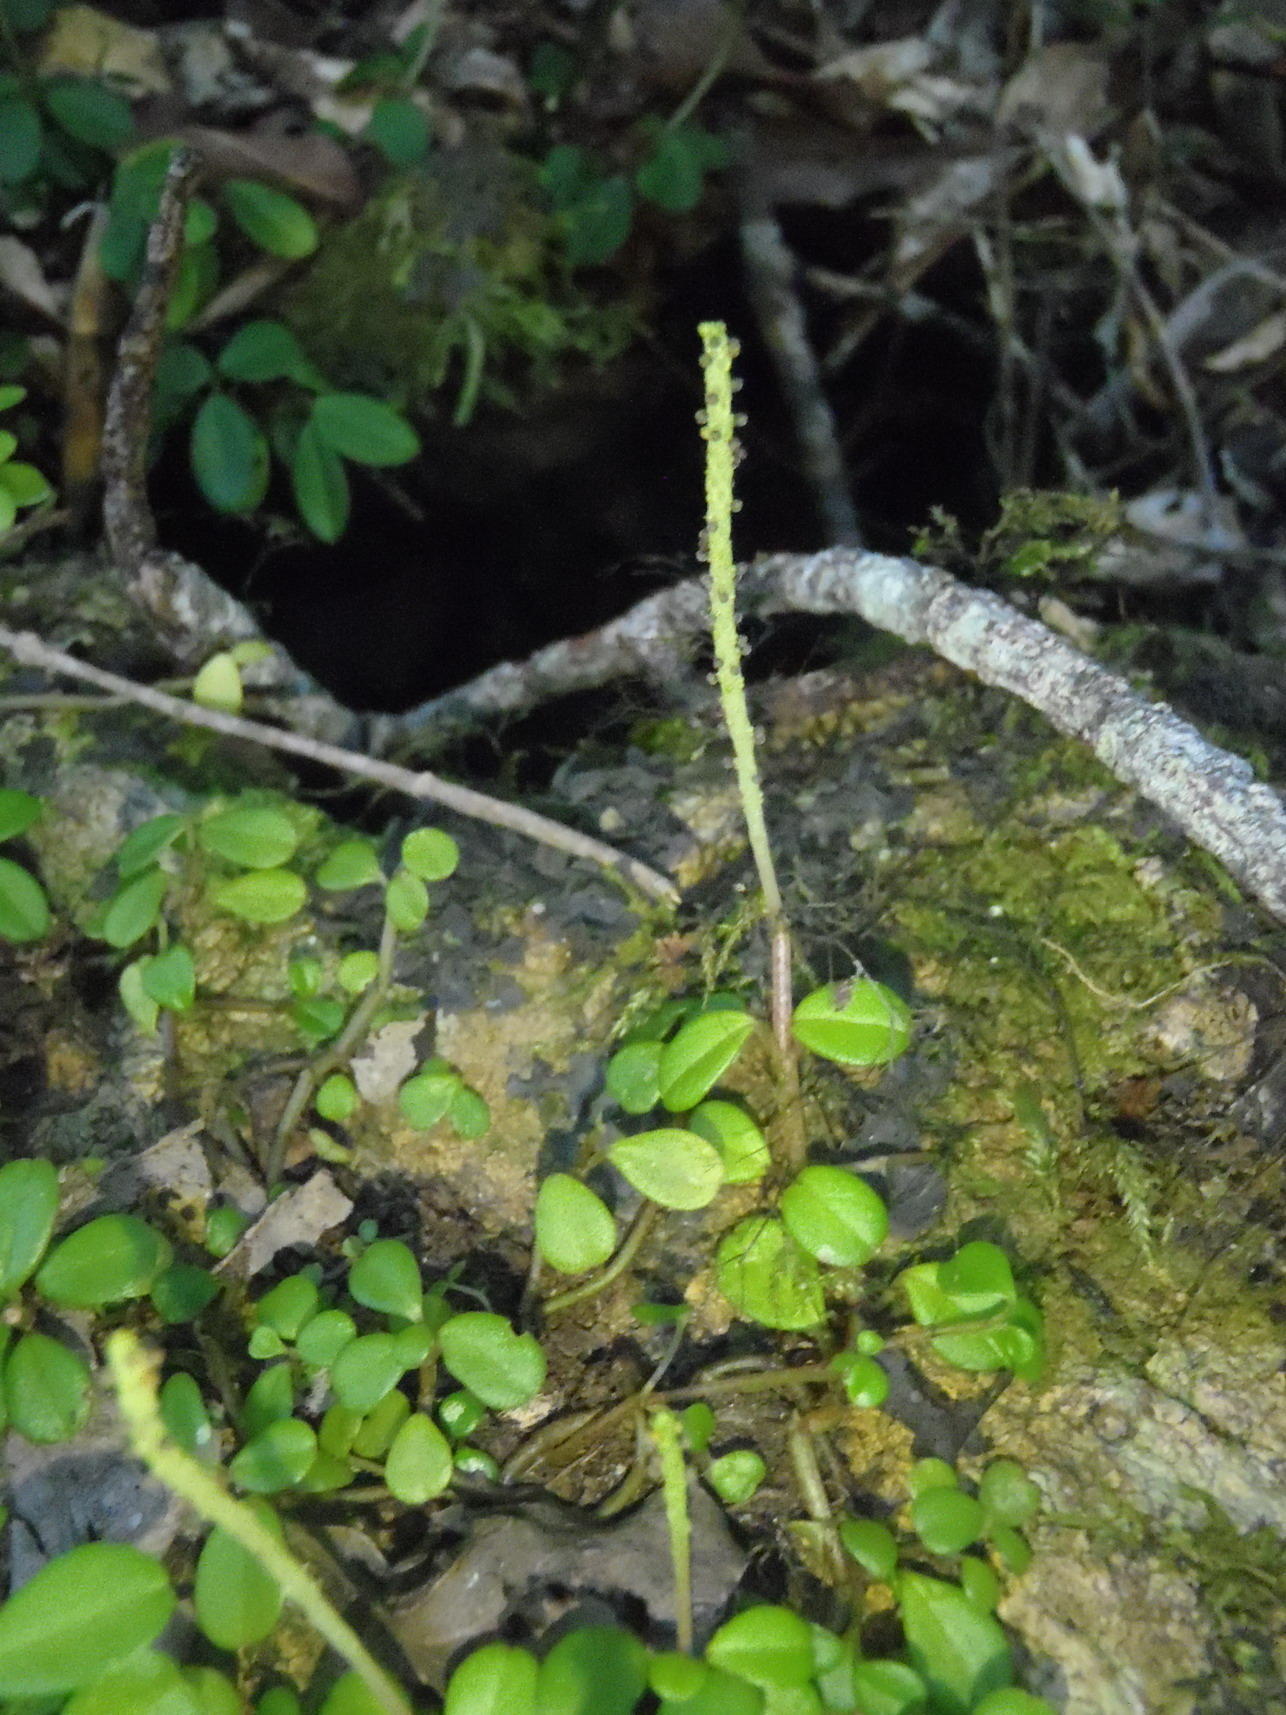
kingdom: Plantae
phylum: Tracheophyta
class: Magnoliopsida
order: Piperales
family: Piperaceae
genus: Peperomia
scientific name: Peperomia retusa
